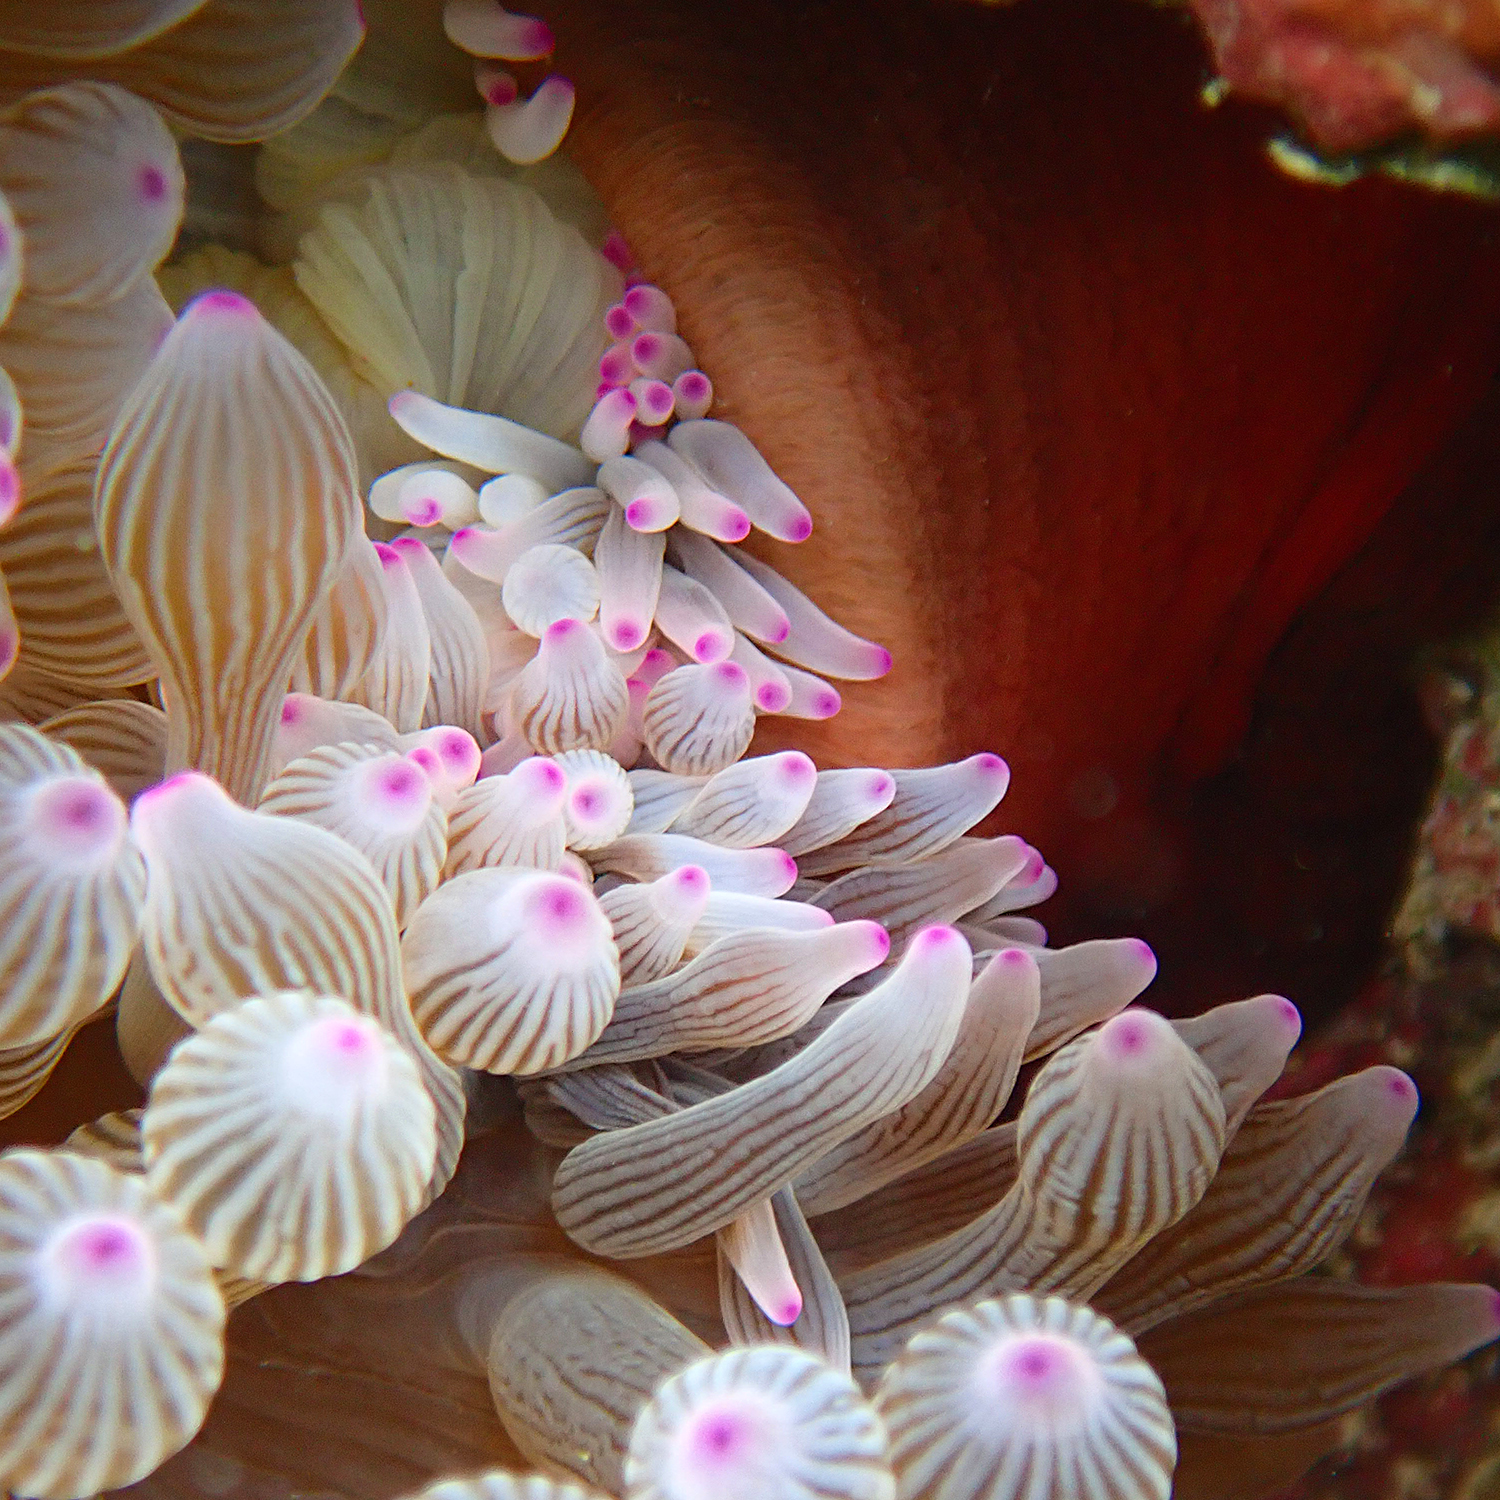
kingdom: Animalia
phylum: Cnidaria
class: Anthozoa
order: Actiniaria
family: Actiniidae
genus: Entacmaea
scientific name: Entacmaea quadricolor
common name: Bulb tentacle sea anemone
